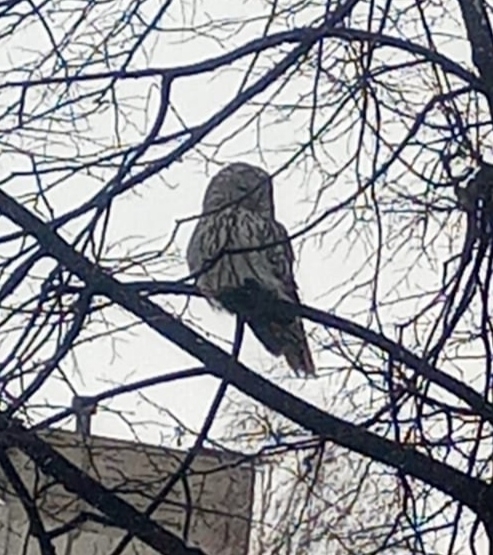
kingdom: Animalia
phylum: Chordata
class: Aves
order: Strigiformes
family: Strigidae
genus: Strix
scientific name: Strix uralensis
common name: Ural owl
